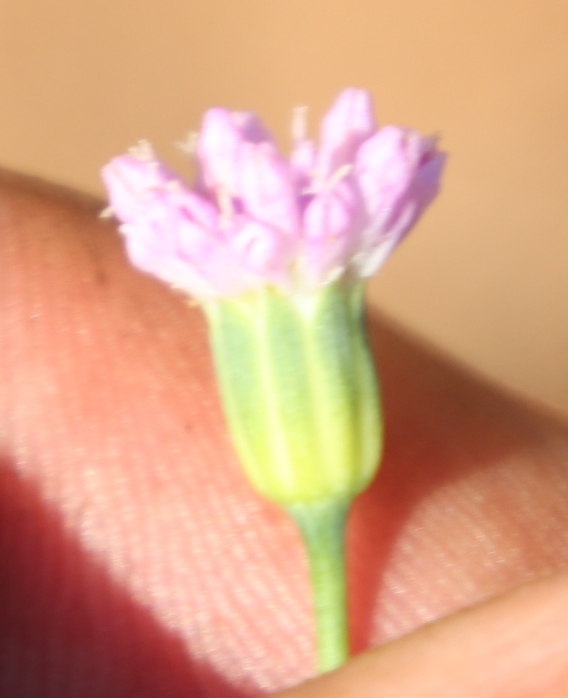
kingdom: Plantae
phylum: Tracheophyta
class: Magnoliopsida
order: Asterales
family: Asteraceae
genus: Emilia
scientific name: Emilia transvaalensis
